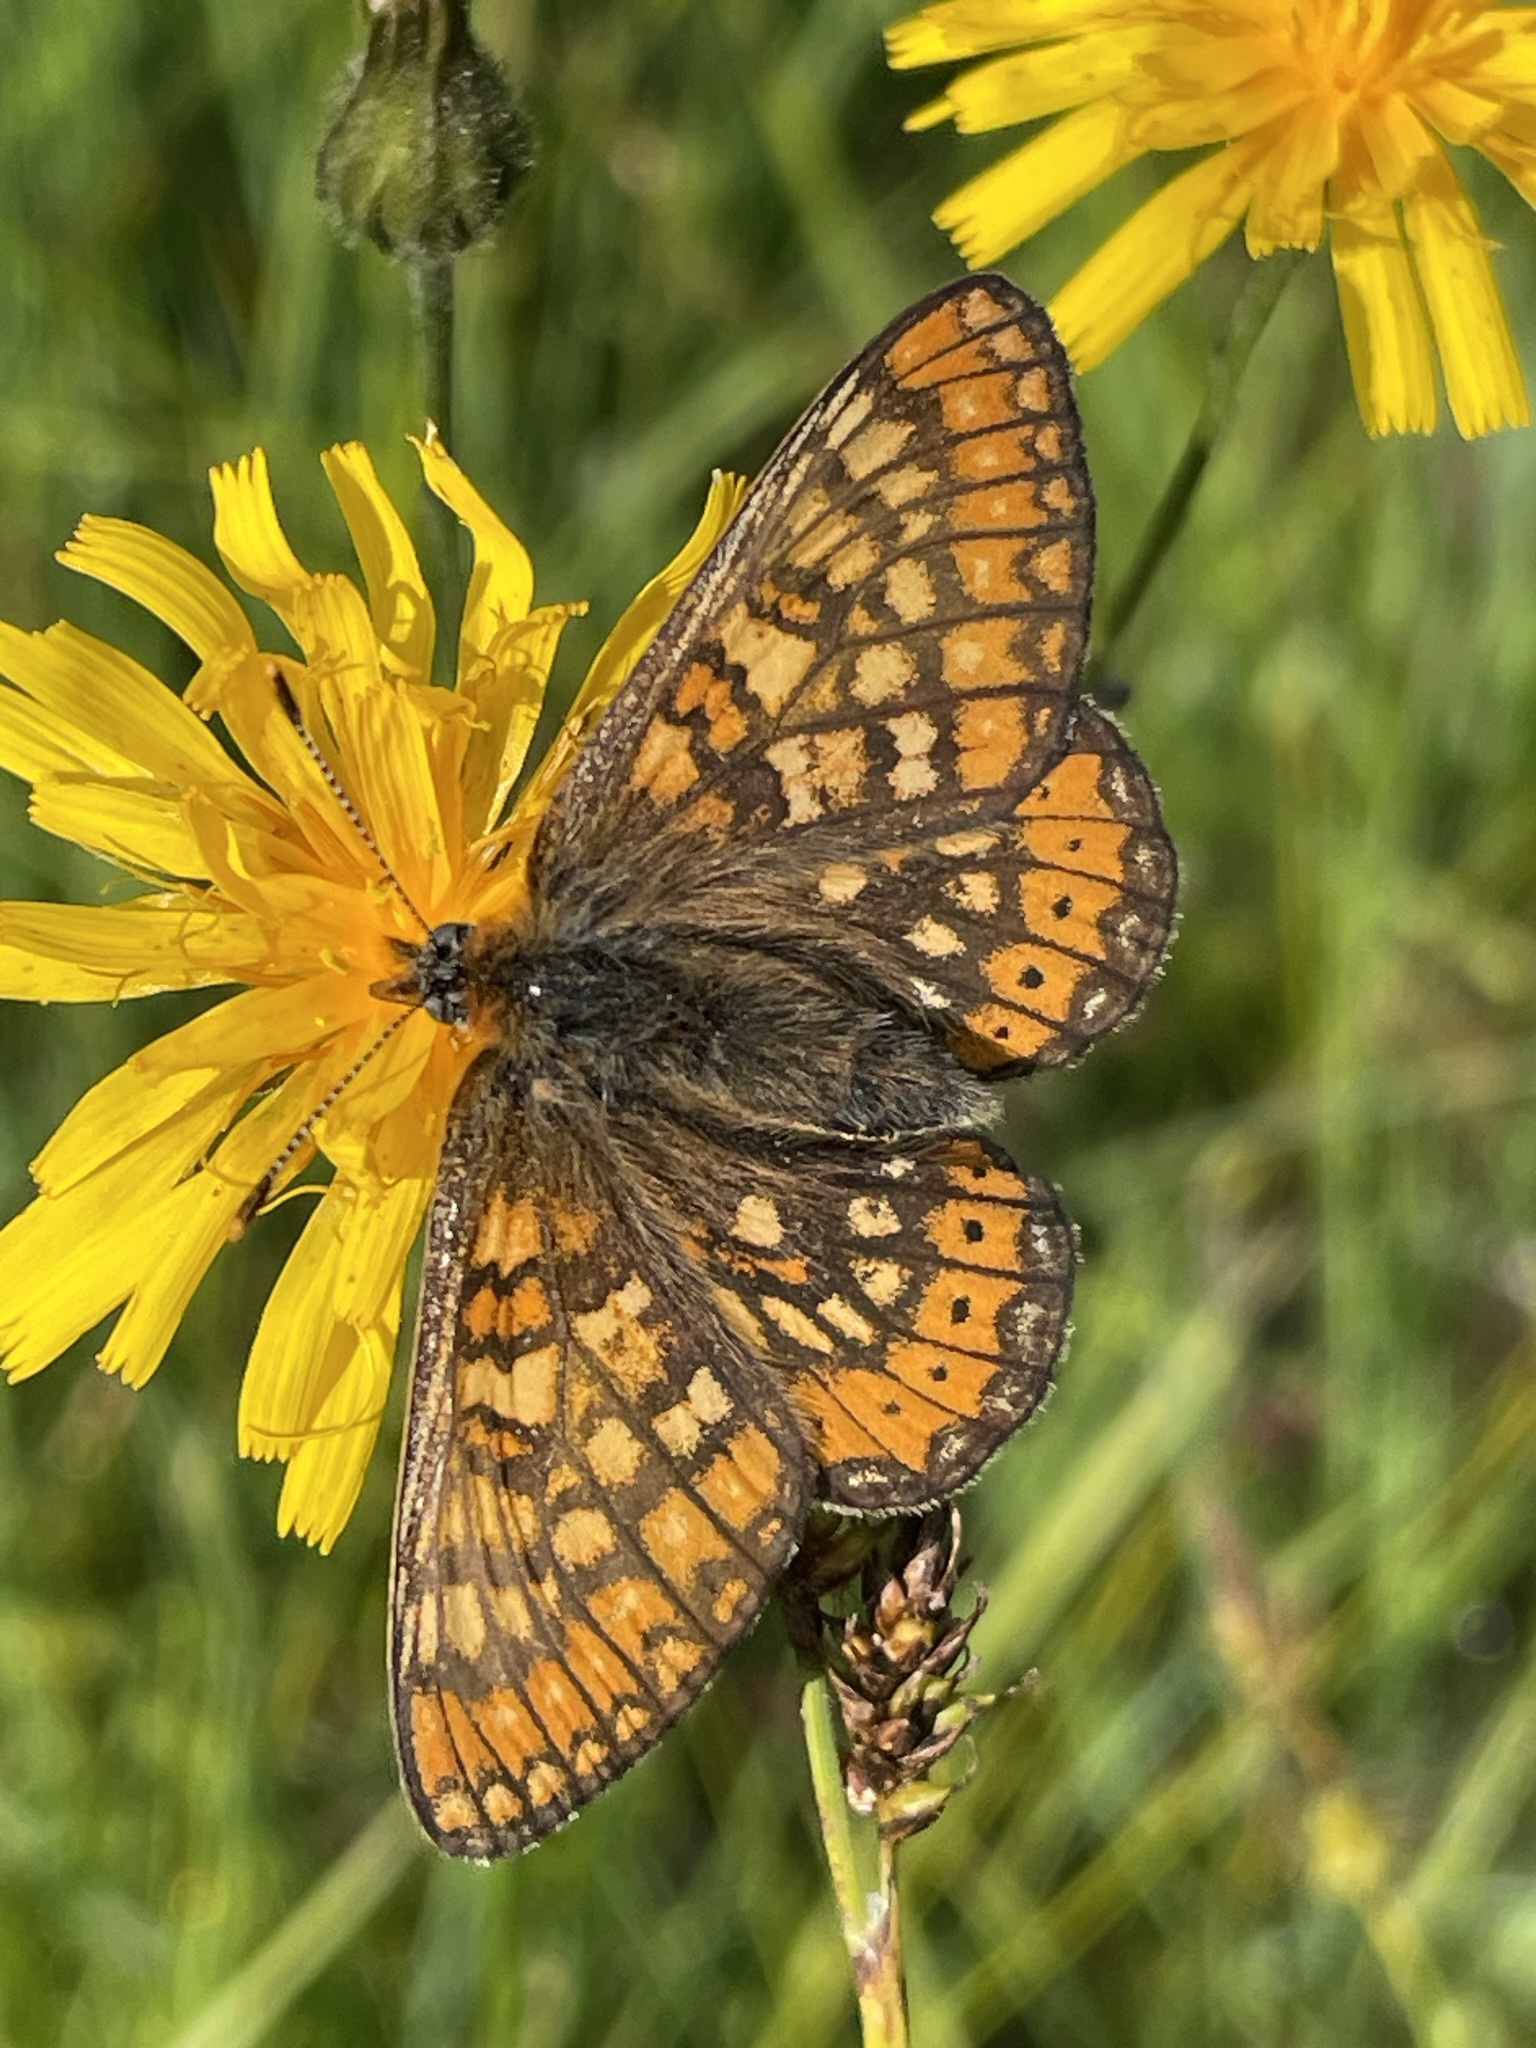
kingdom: Animalia
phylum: Arthropoda
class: Insecta
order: Lepidoptera
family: Nymphalidae
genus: Euphydryas
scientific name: Euphydryas aurinia
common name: Marsh fritillary
